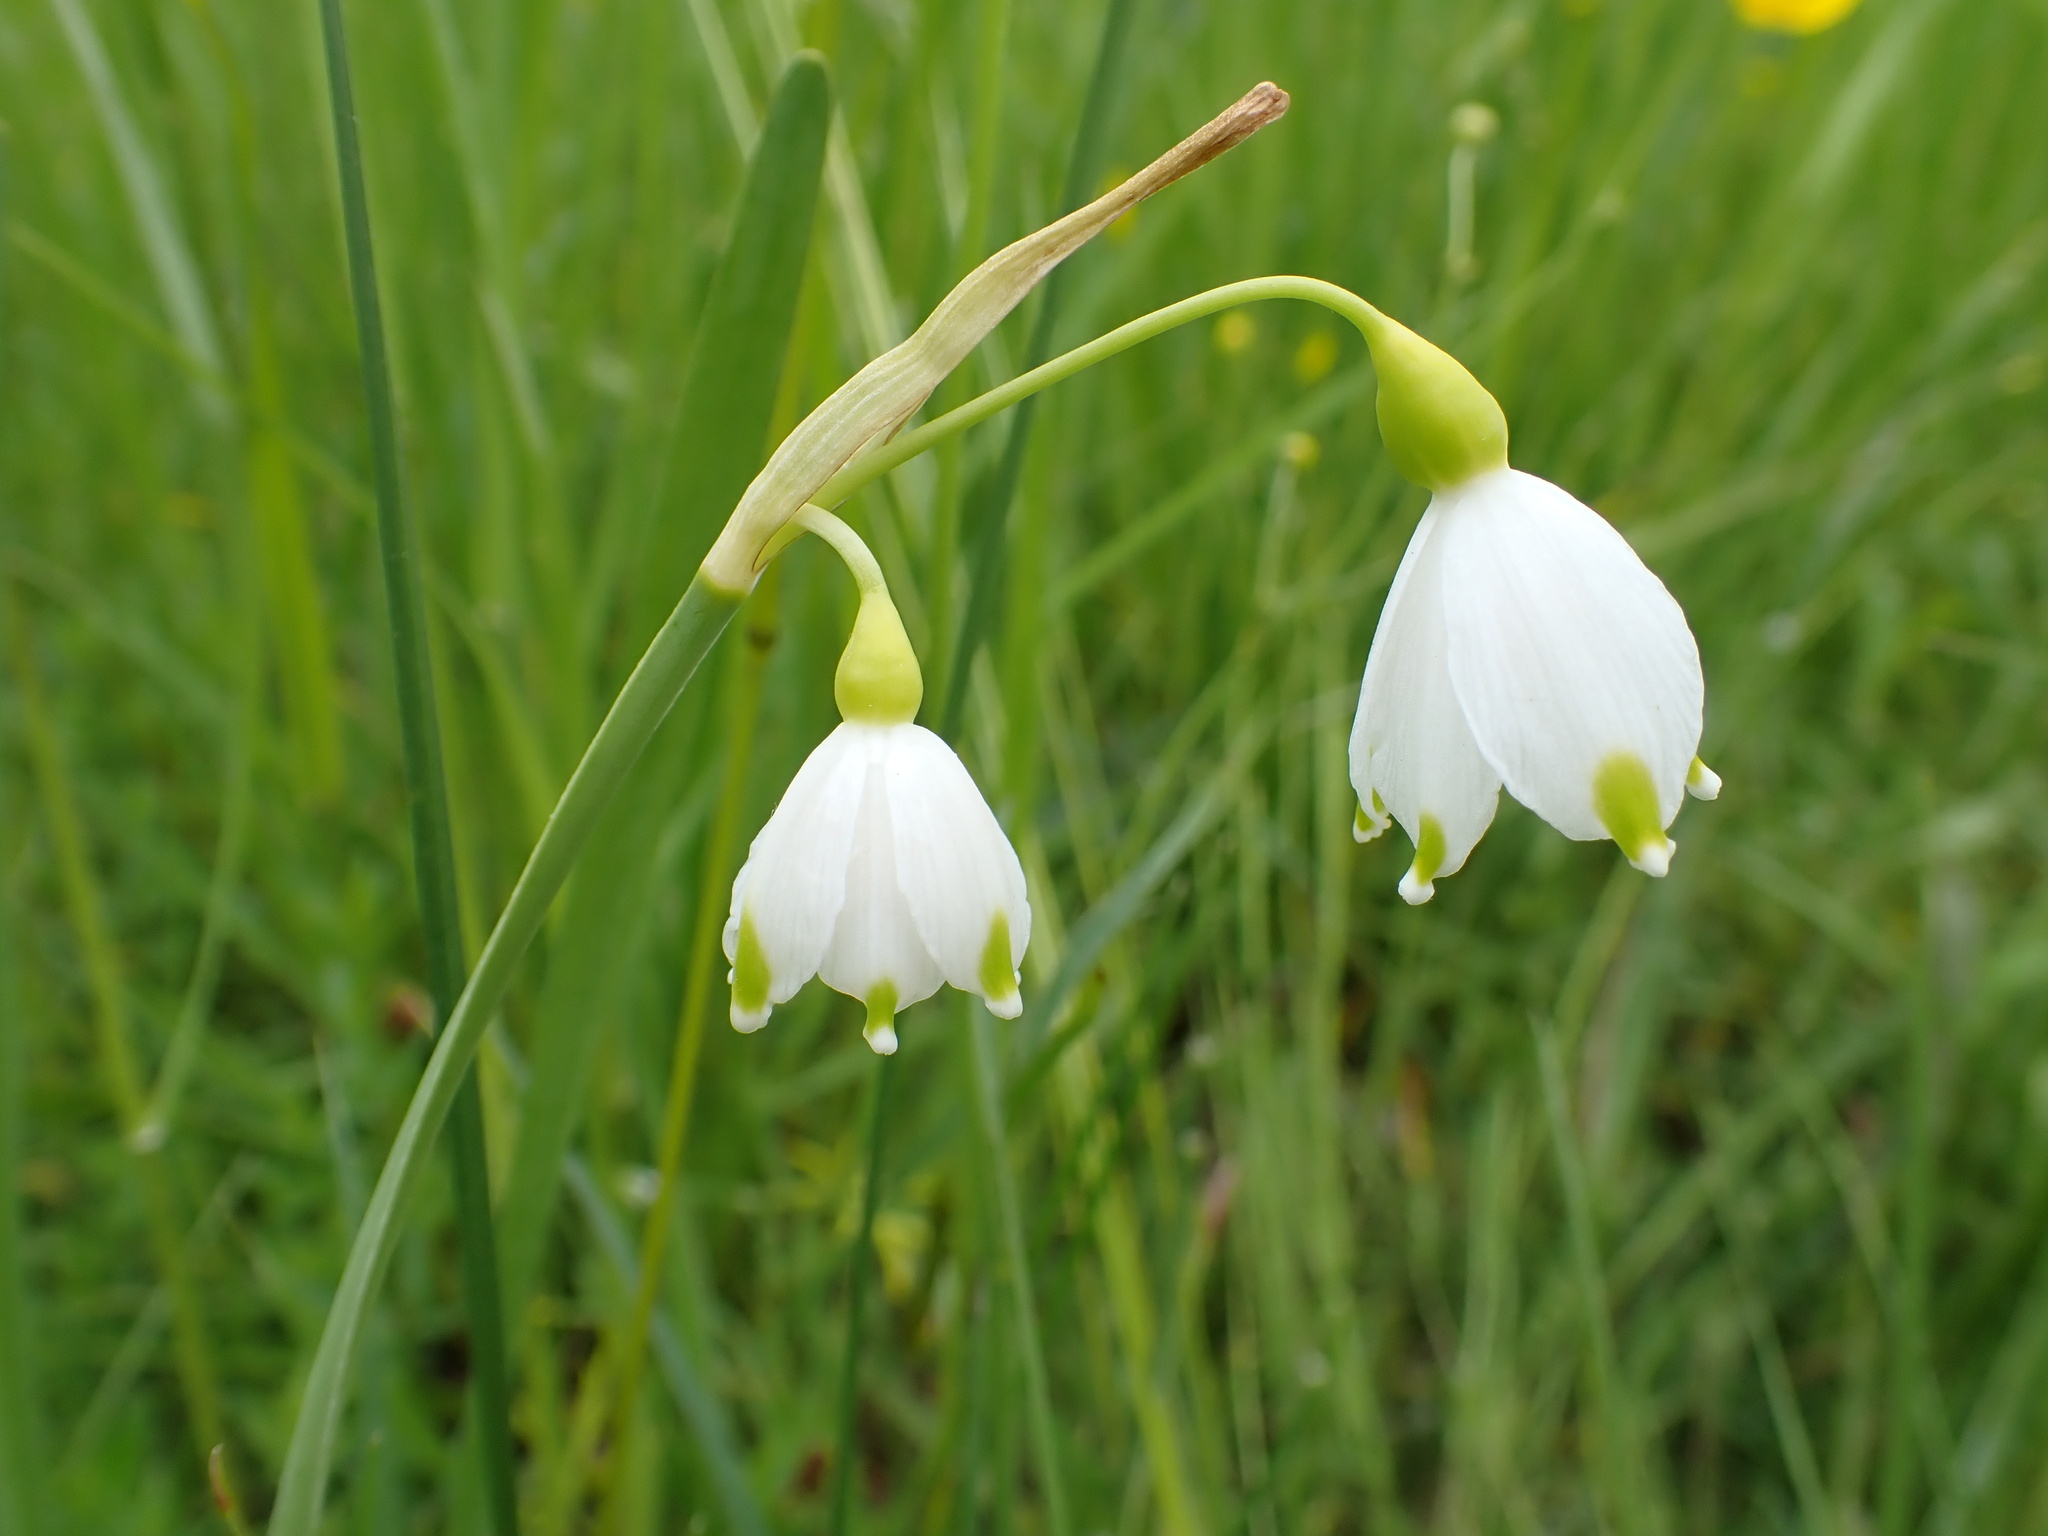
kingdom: Plantae
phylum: Tracheophyta
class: Liliopsida
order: Asparagales
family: Amaryllidaceae
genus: Leucojum
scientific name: Leucojum aestivum
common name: Summer snowflake
